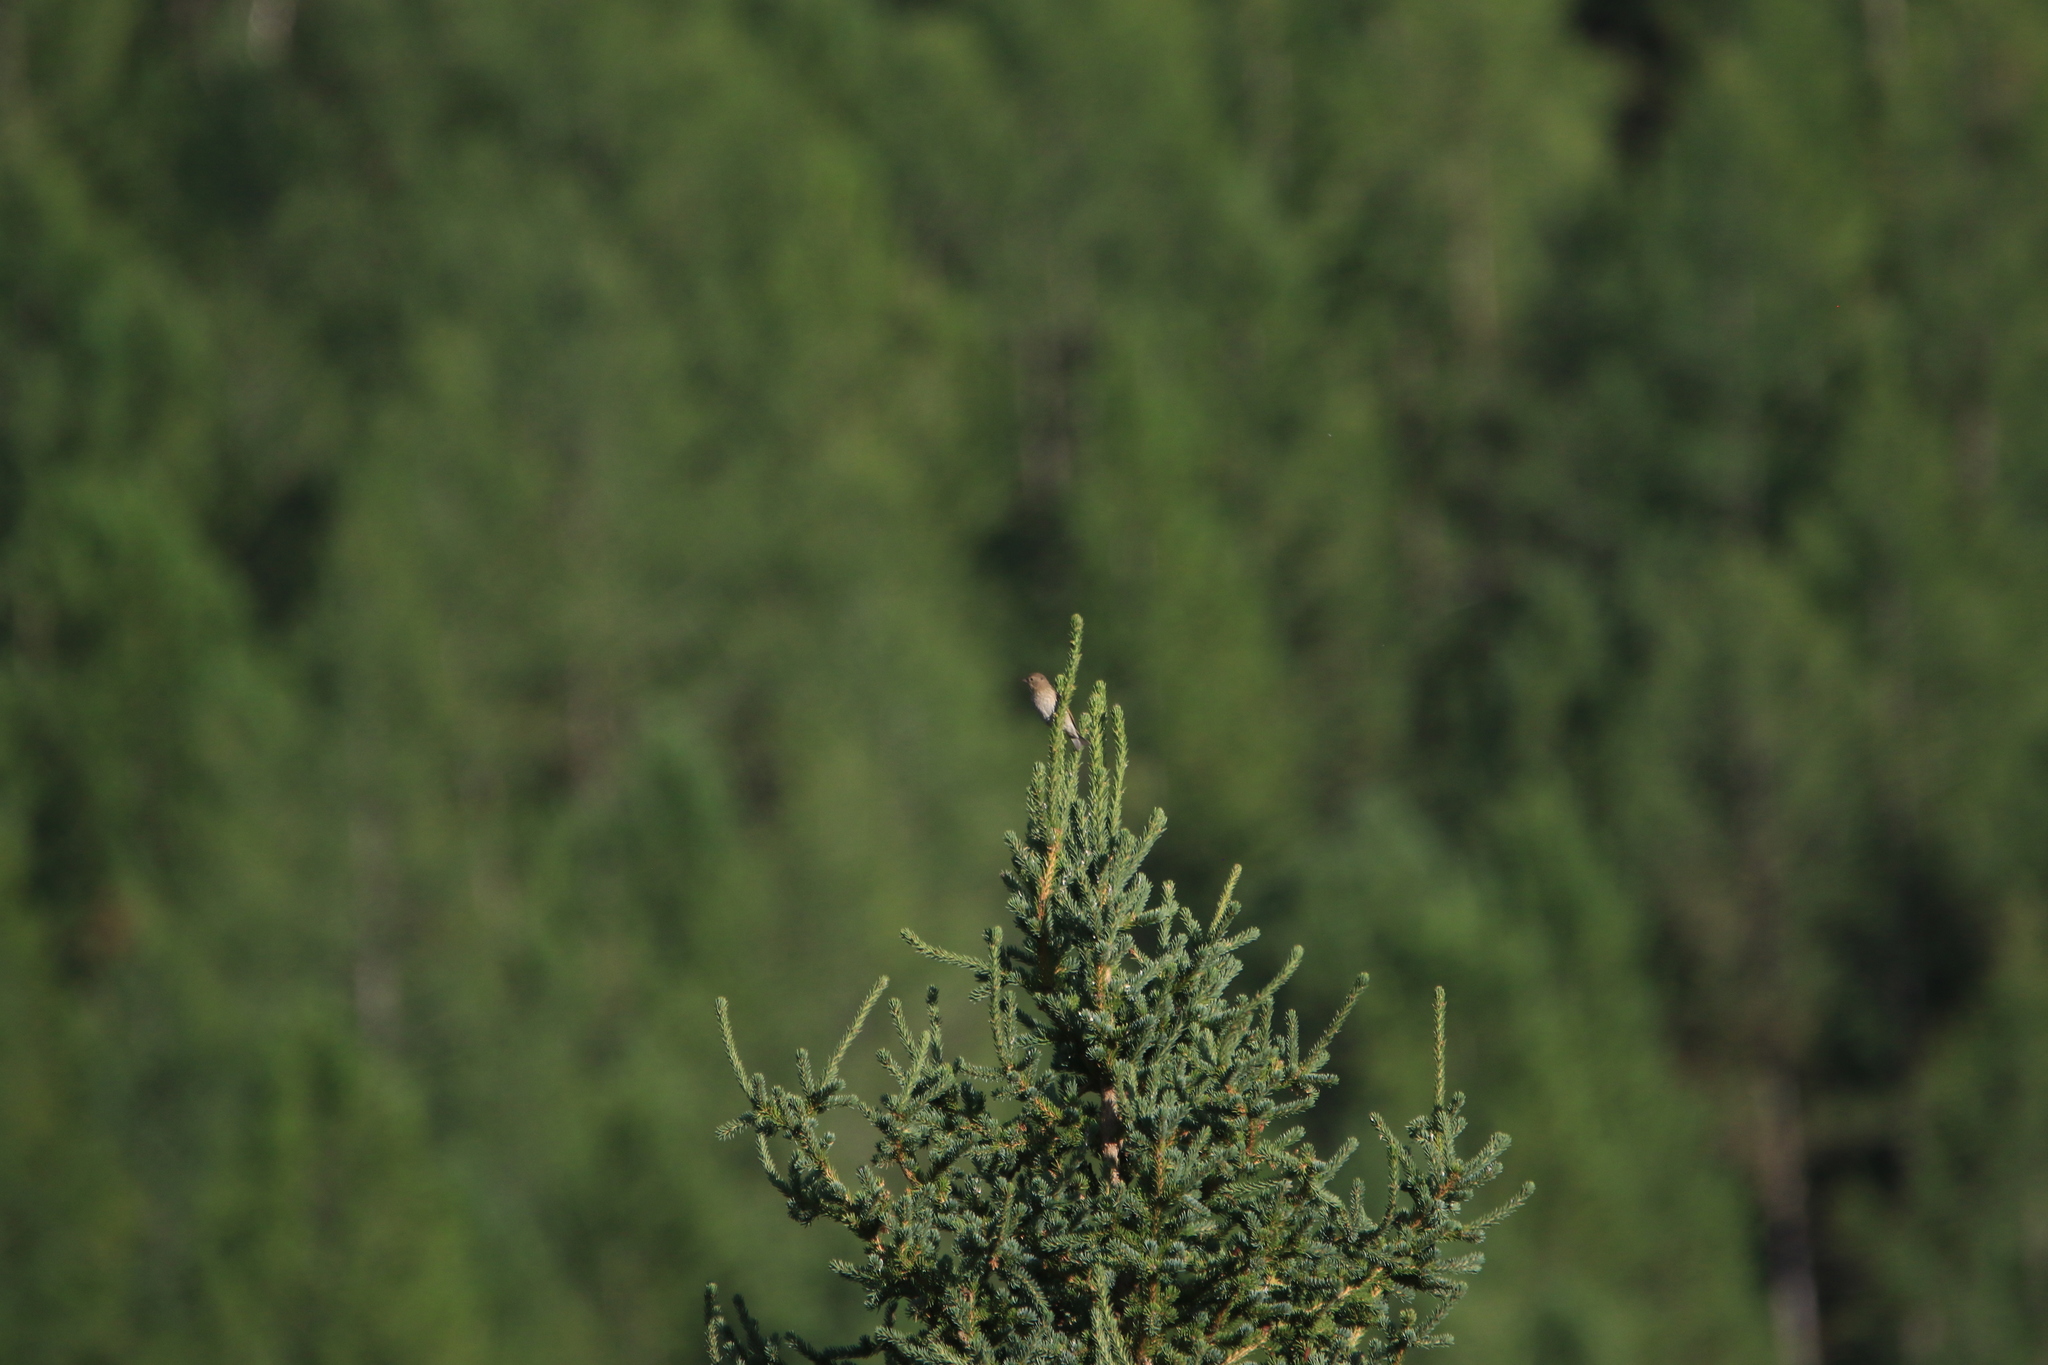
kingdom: Animalia
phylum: Chordata
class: Aves
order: Passeriformes
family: Fringillidae
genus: Carpodacus
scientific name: Carpodacus erythrinus
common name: Common rosefinch
